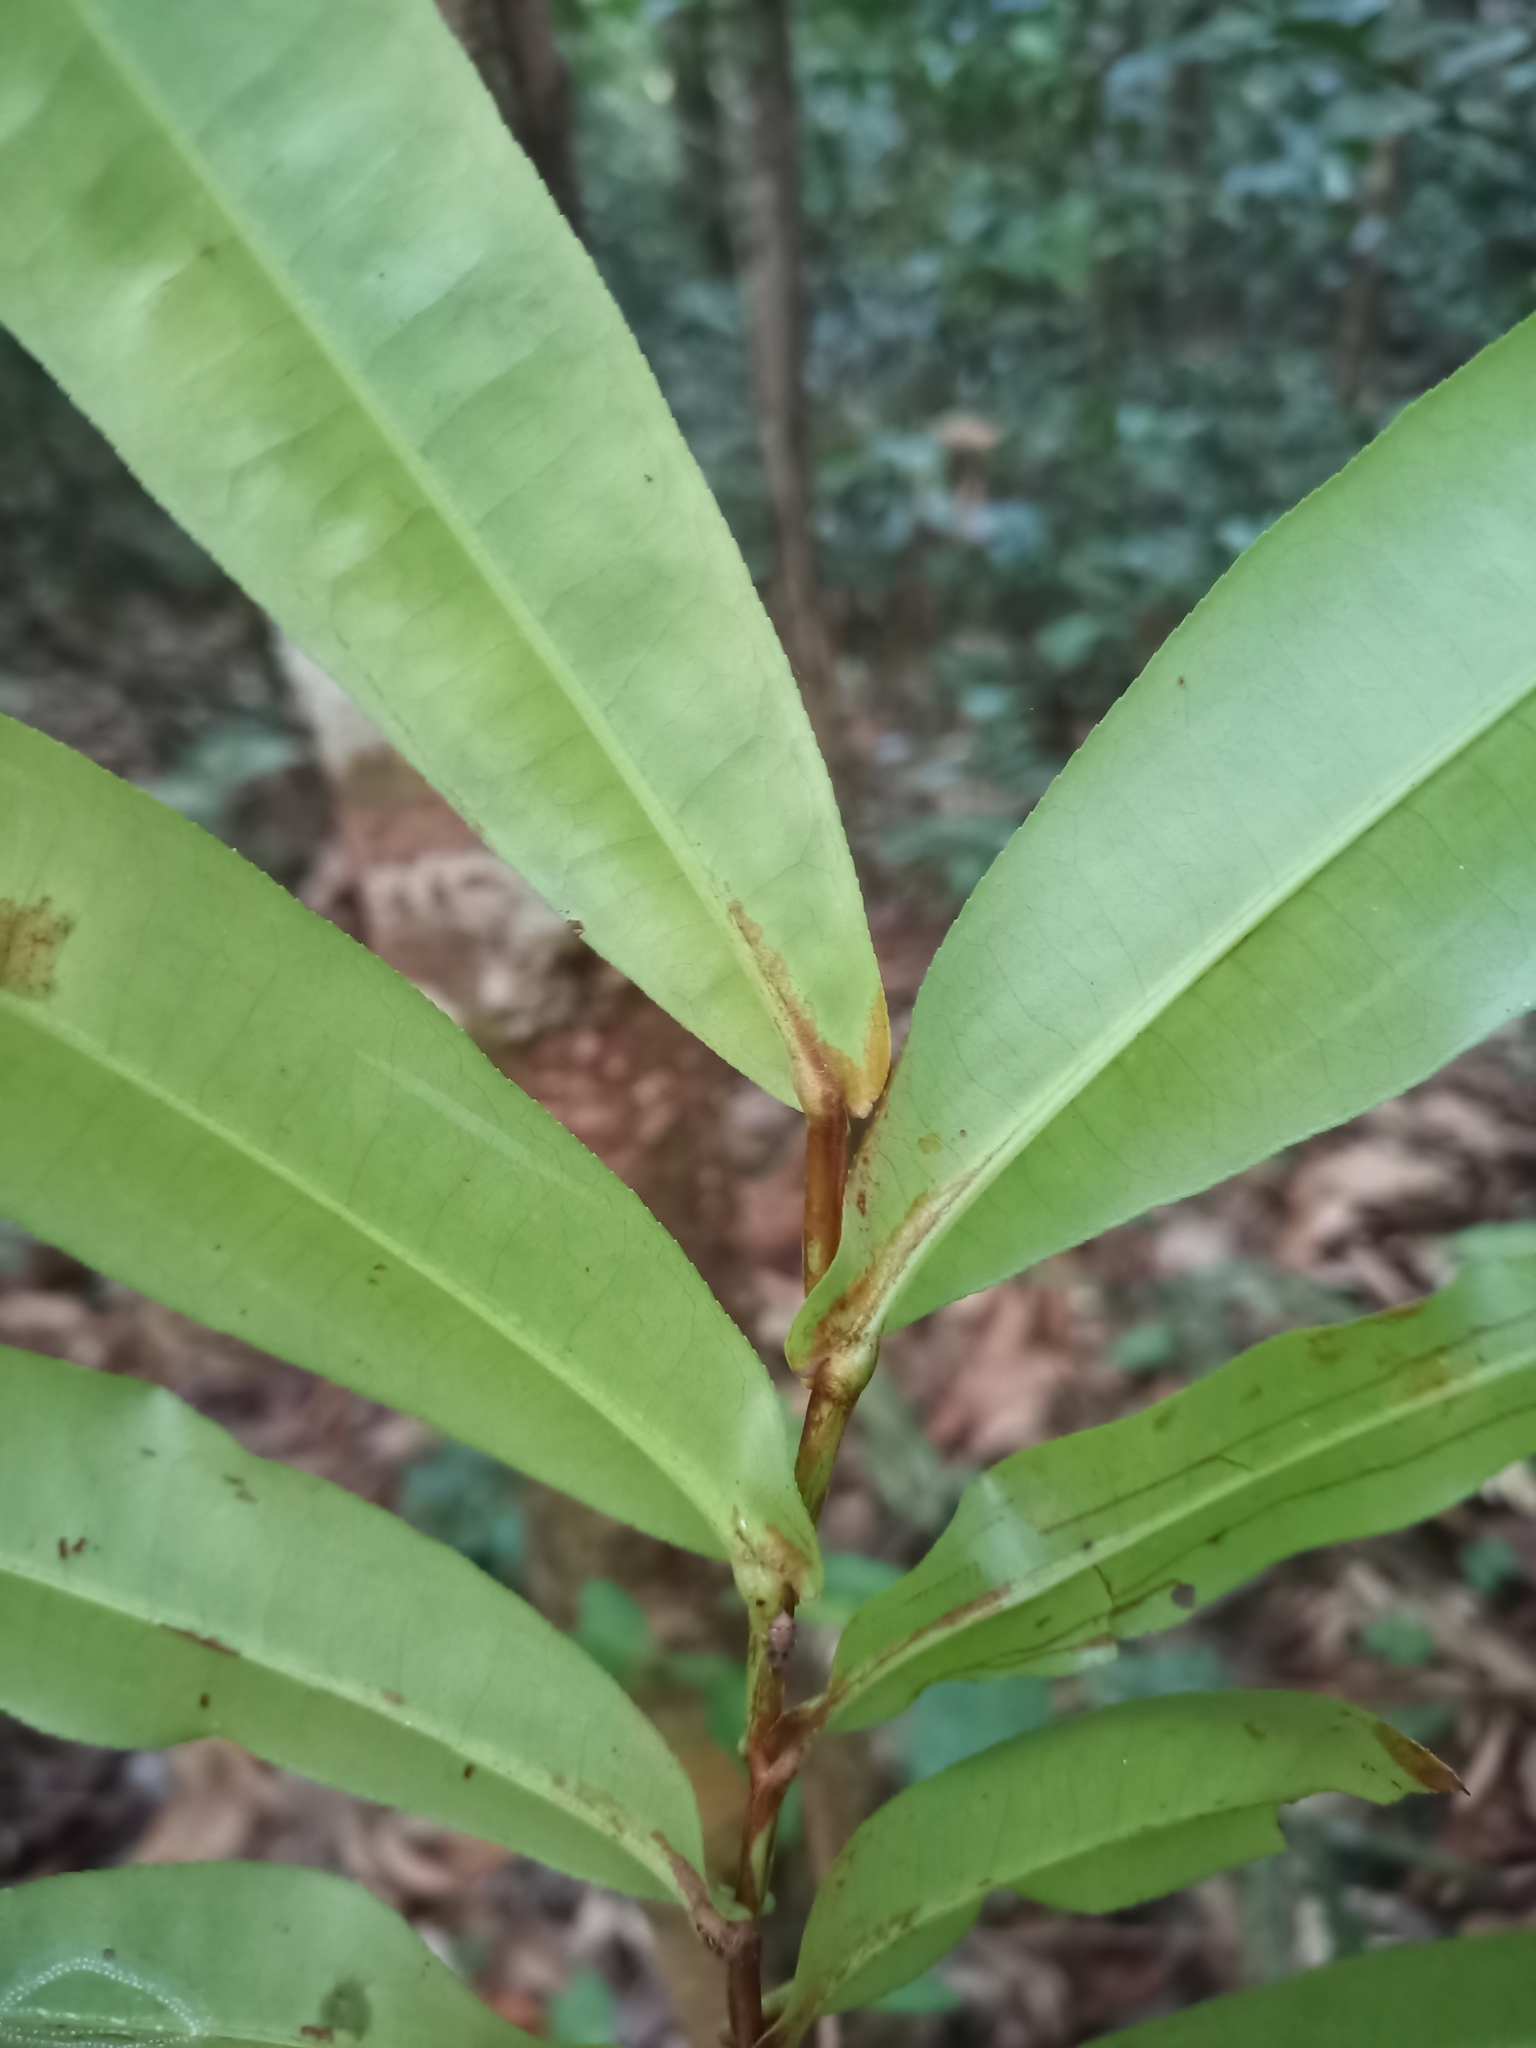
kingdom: Plantae
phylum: Tracheophyta
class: Magnoliopsida
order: Malpighiales
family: Humiriaceae
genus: Humiria
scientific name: Humiria balsamifera
